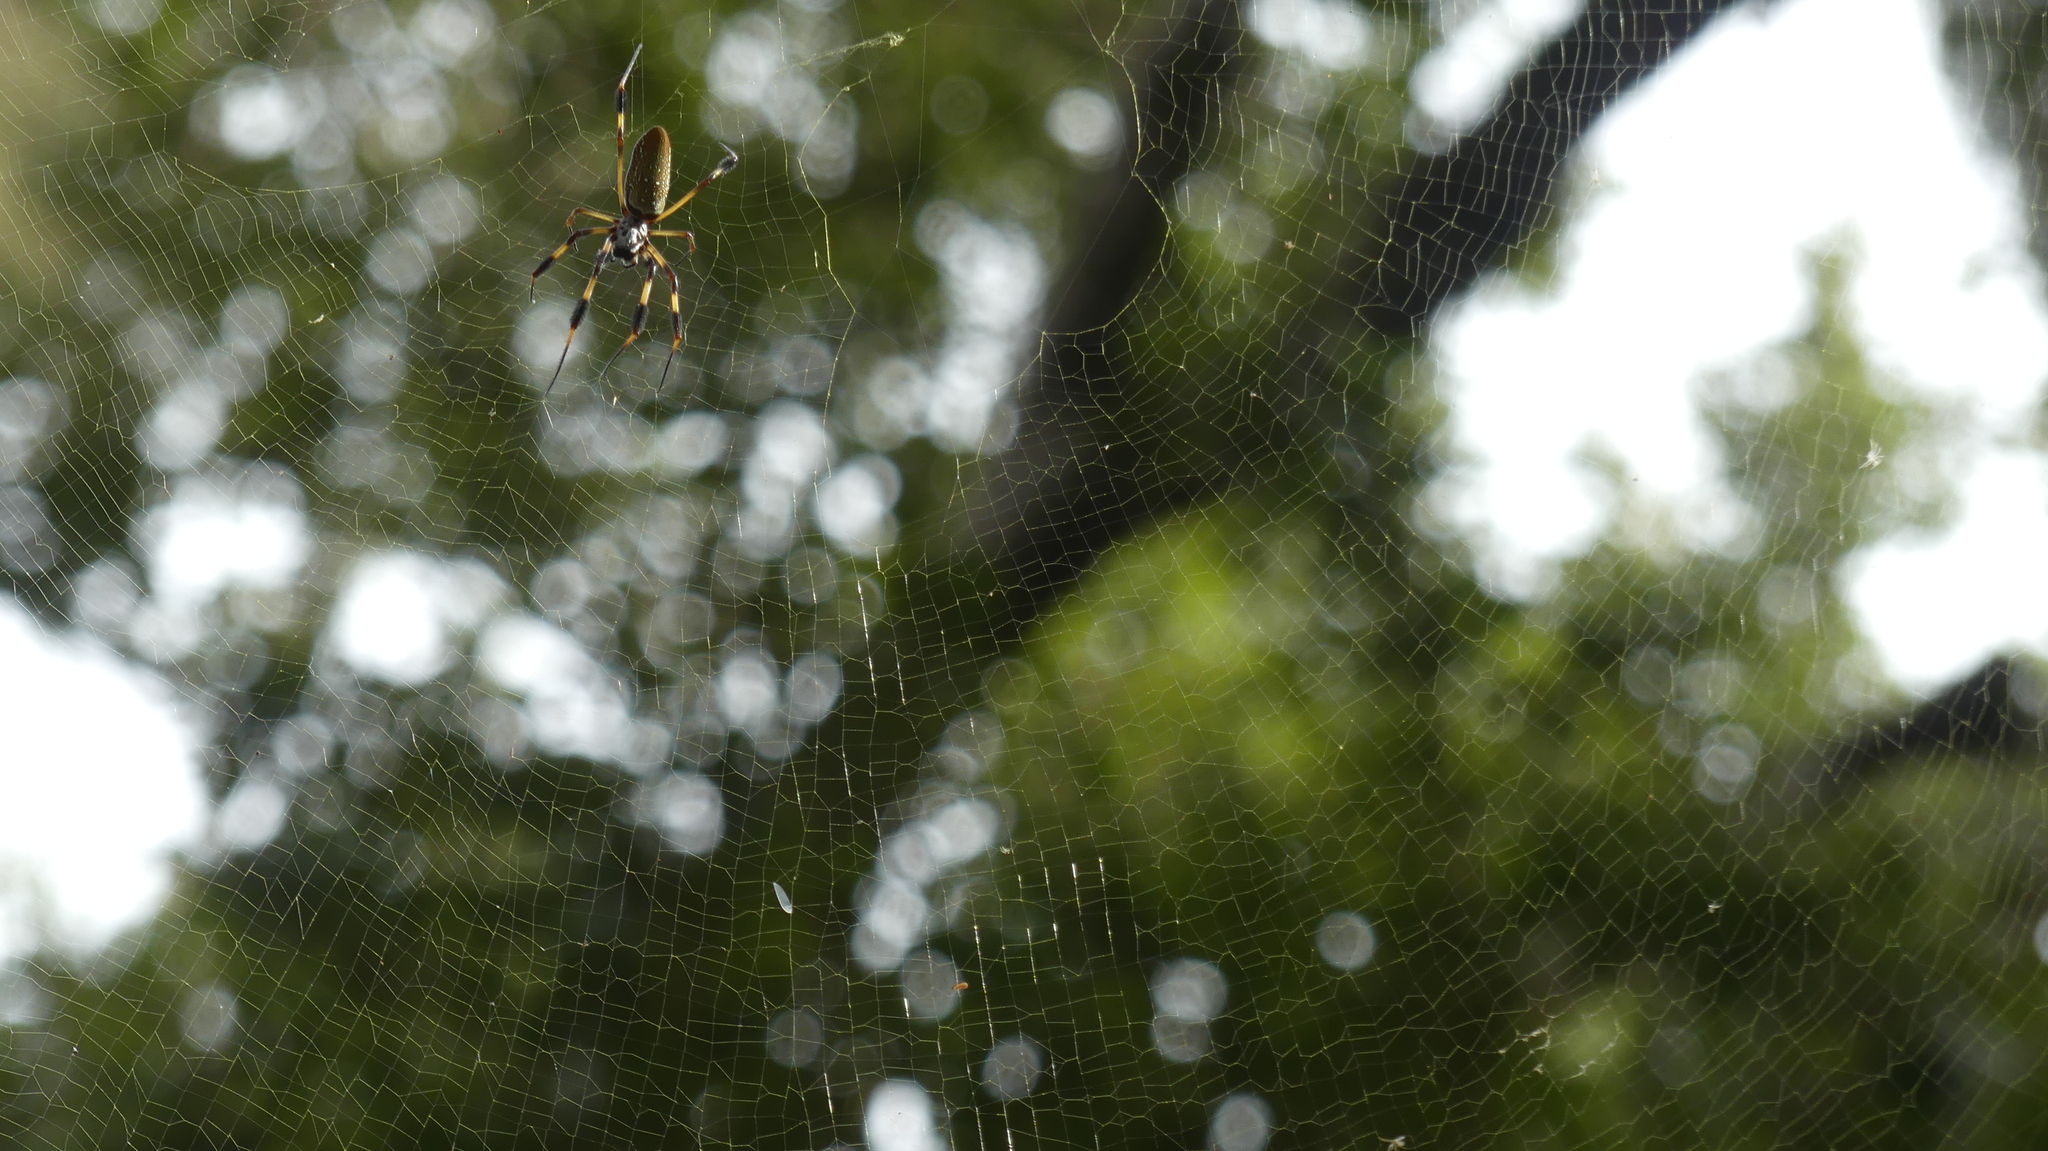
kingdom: Animalia
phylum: Arthropoda
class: Arachnida
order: Araneae
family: Araneidae
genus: Trichonephila
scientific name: Trichonephila clavipes
